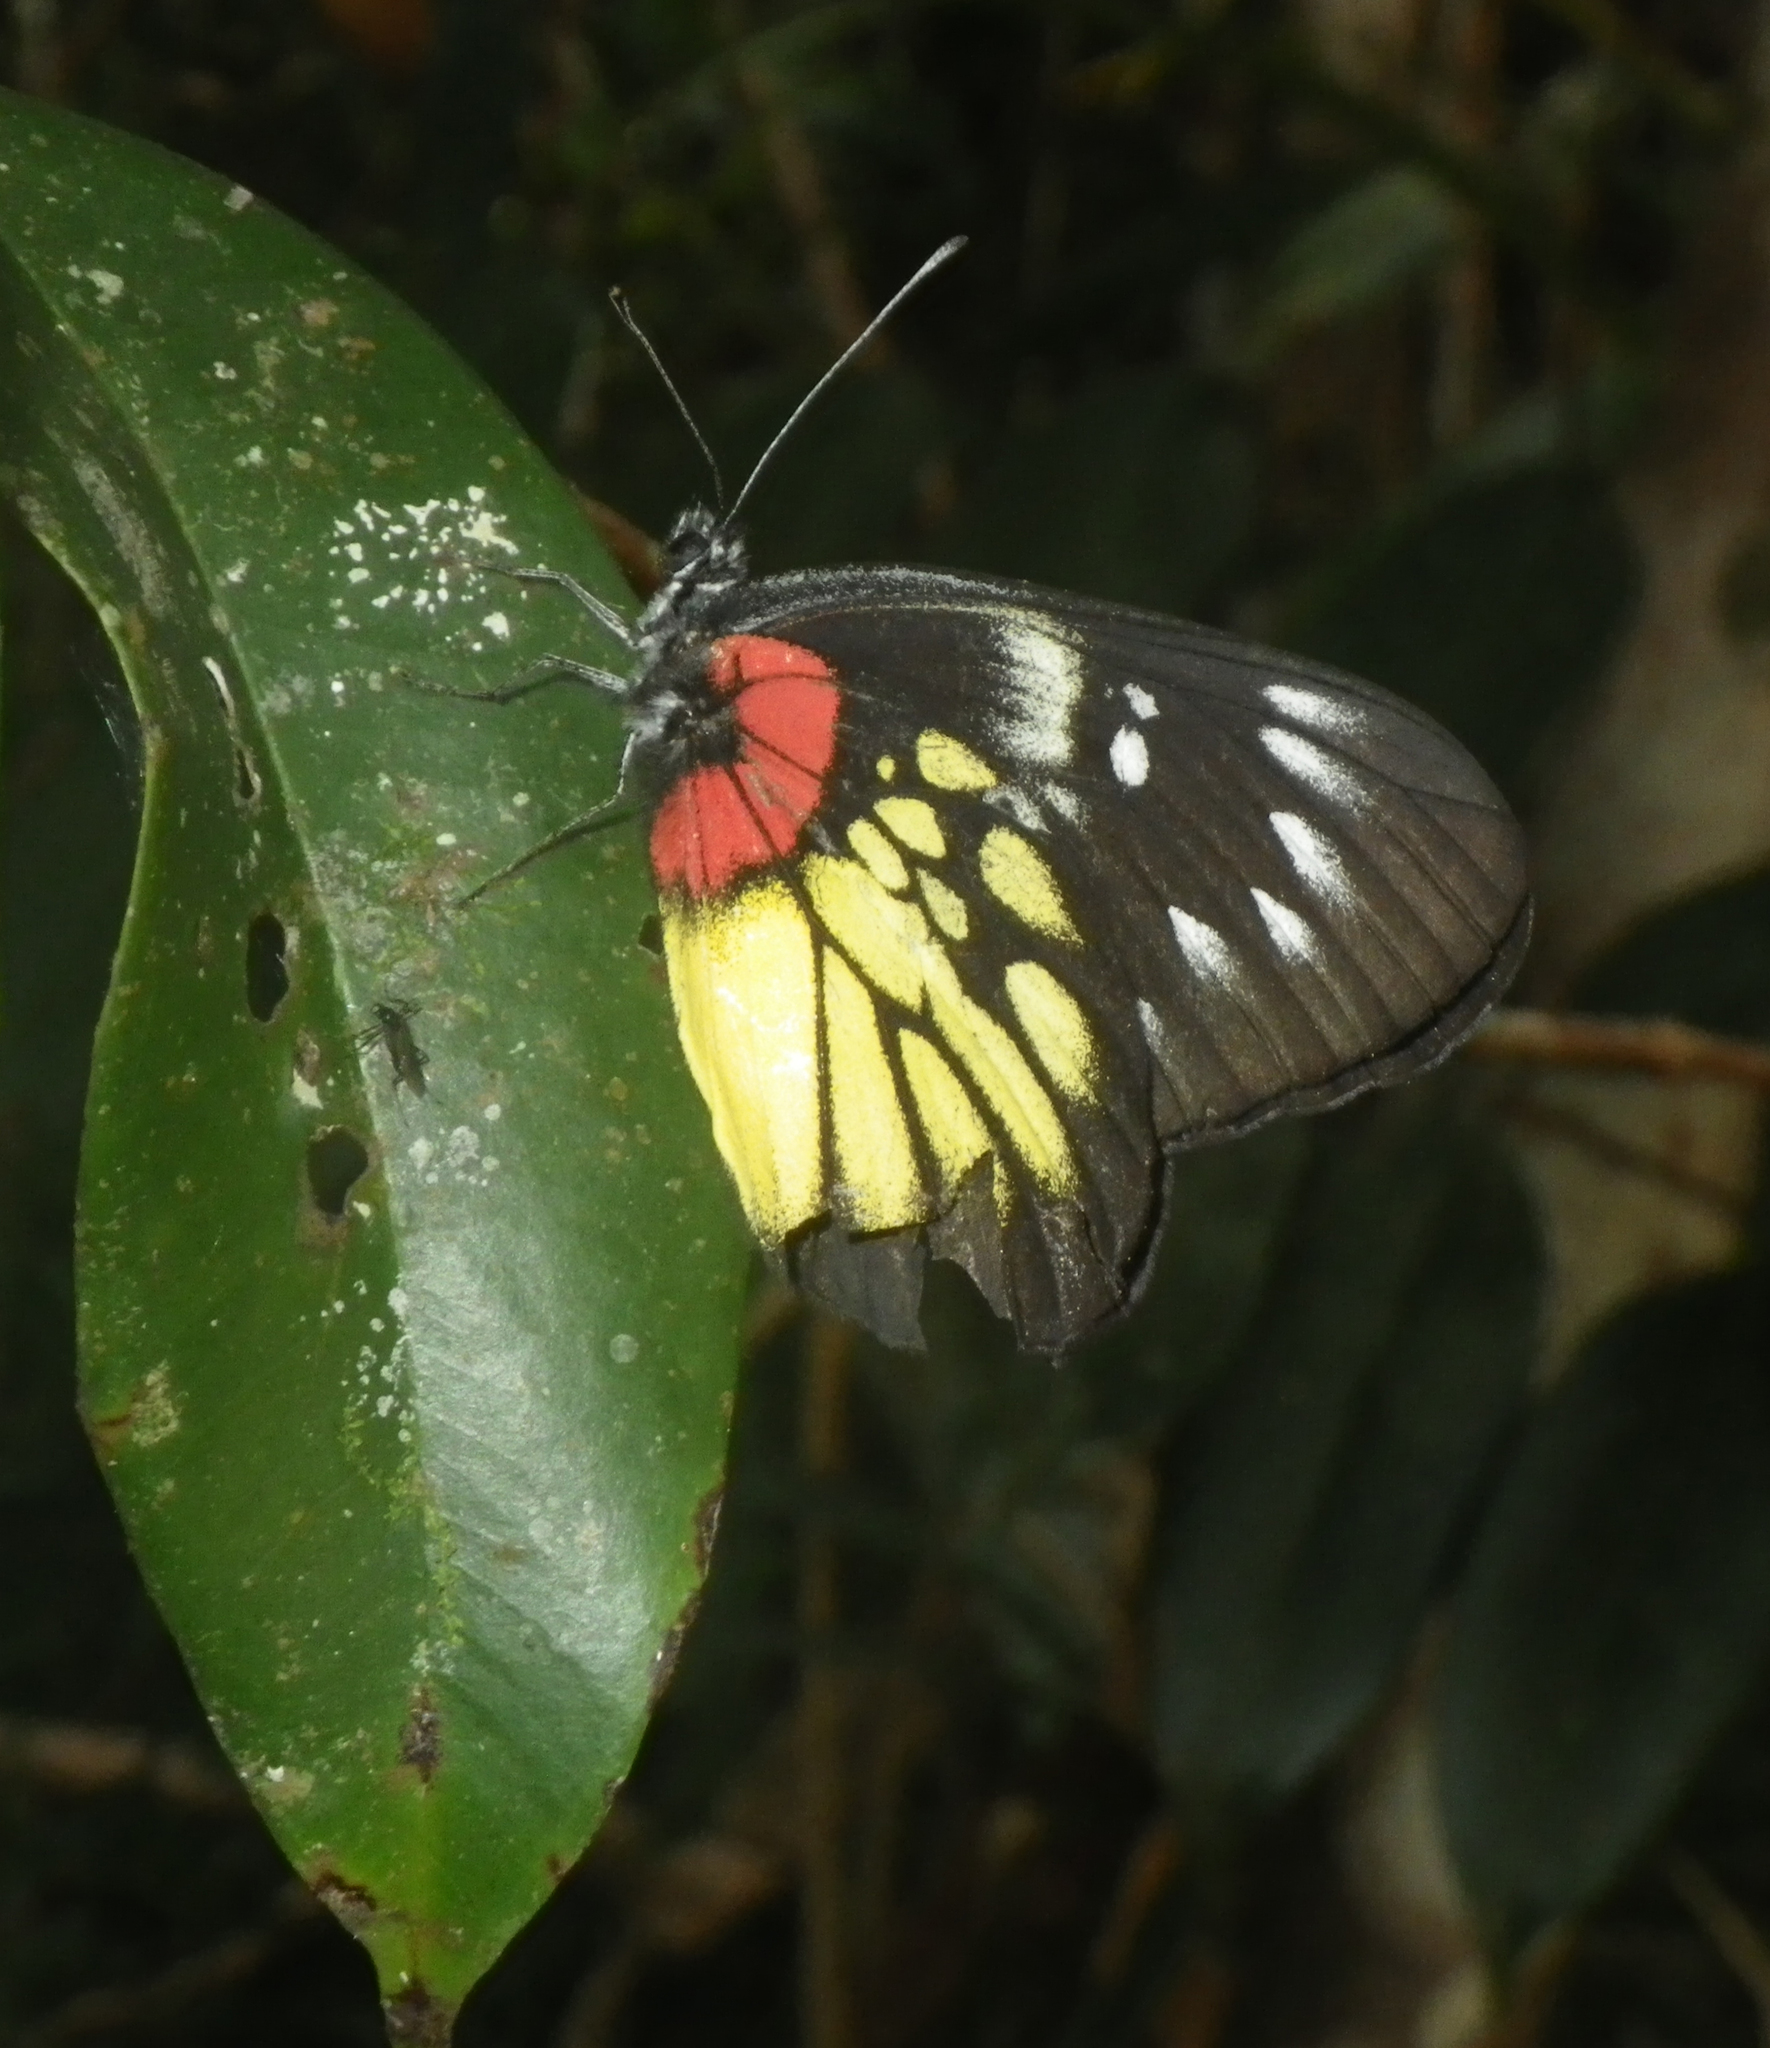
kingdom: Animalia
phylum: Arthropoda
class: Insecta
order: Lepidoptera
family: Pieridae
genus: Delias
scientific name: Delias pasithoe
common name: Red-base jezebel
